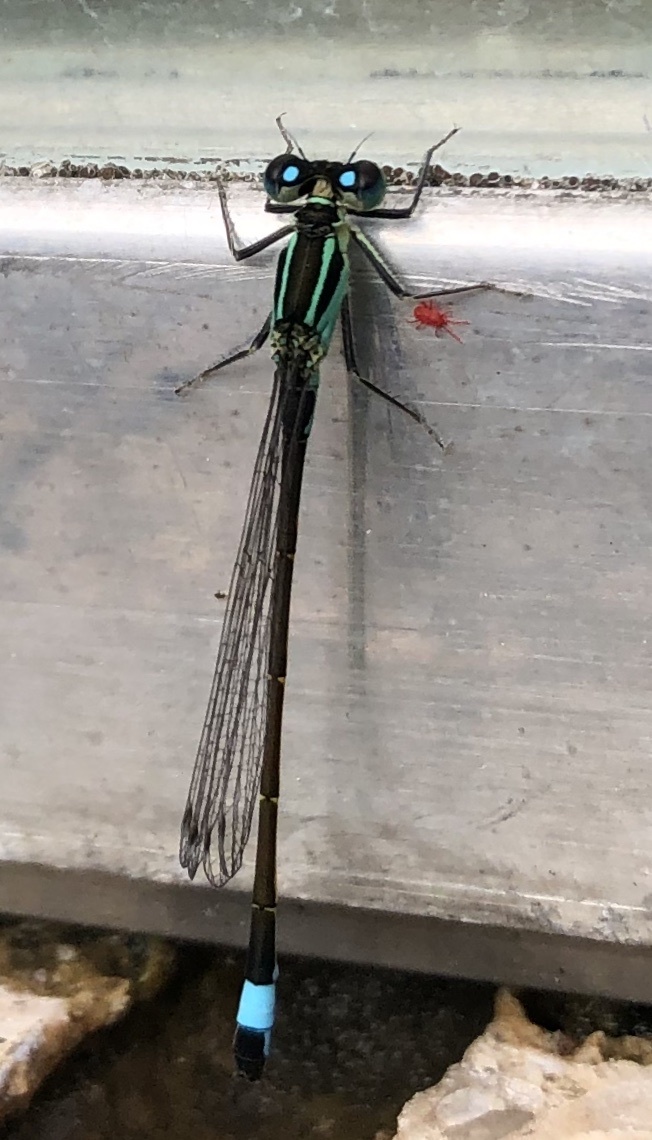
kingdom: Animalia
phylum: Arthropoda
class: Insecta
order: Odonata
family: Coenagrionidae
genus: Ischnura
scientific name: Ischnura elegans
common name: Blue-tailed damselfly
